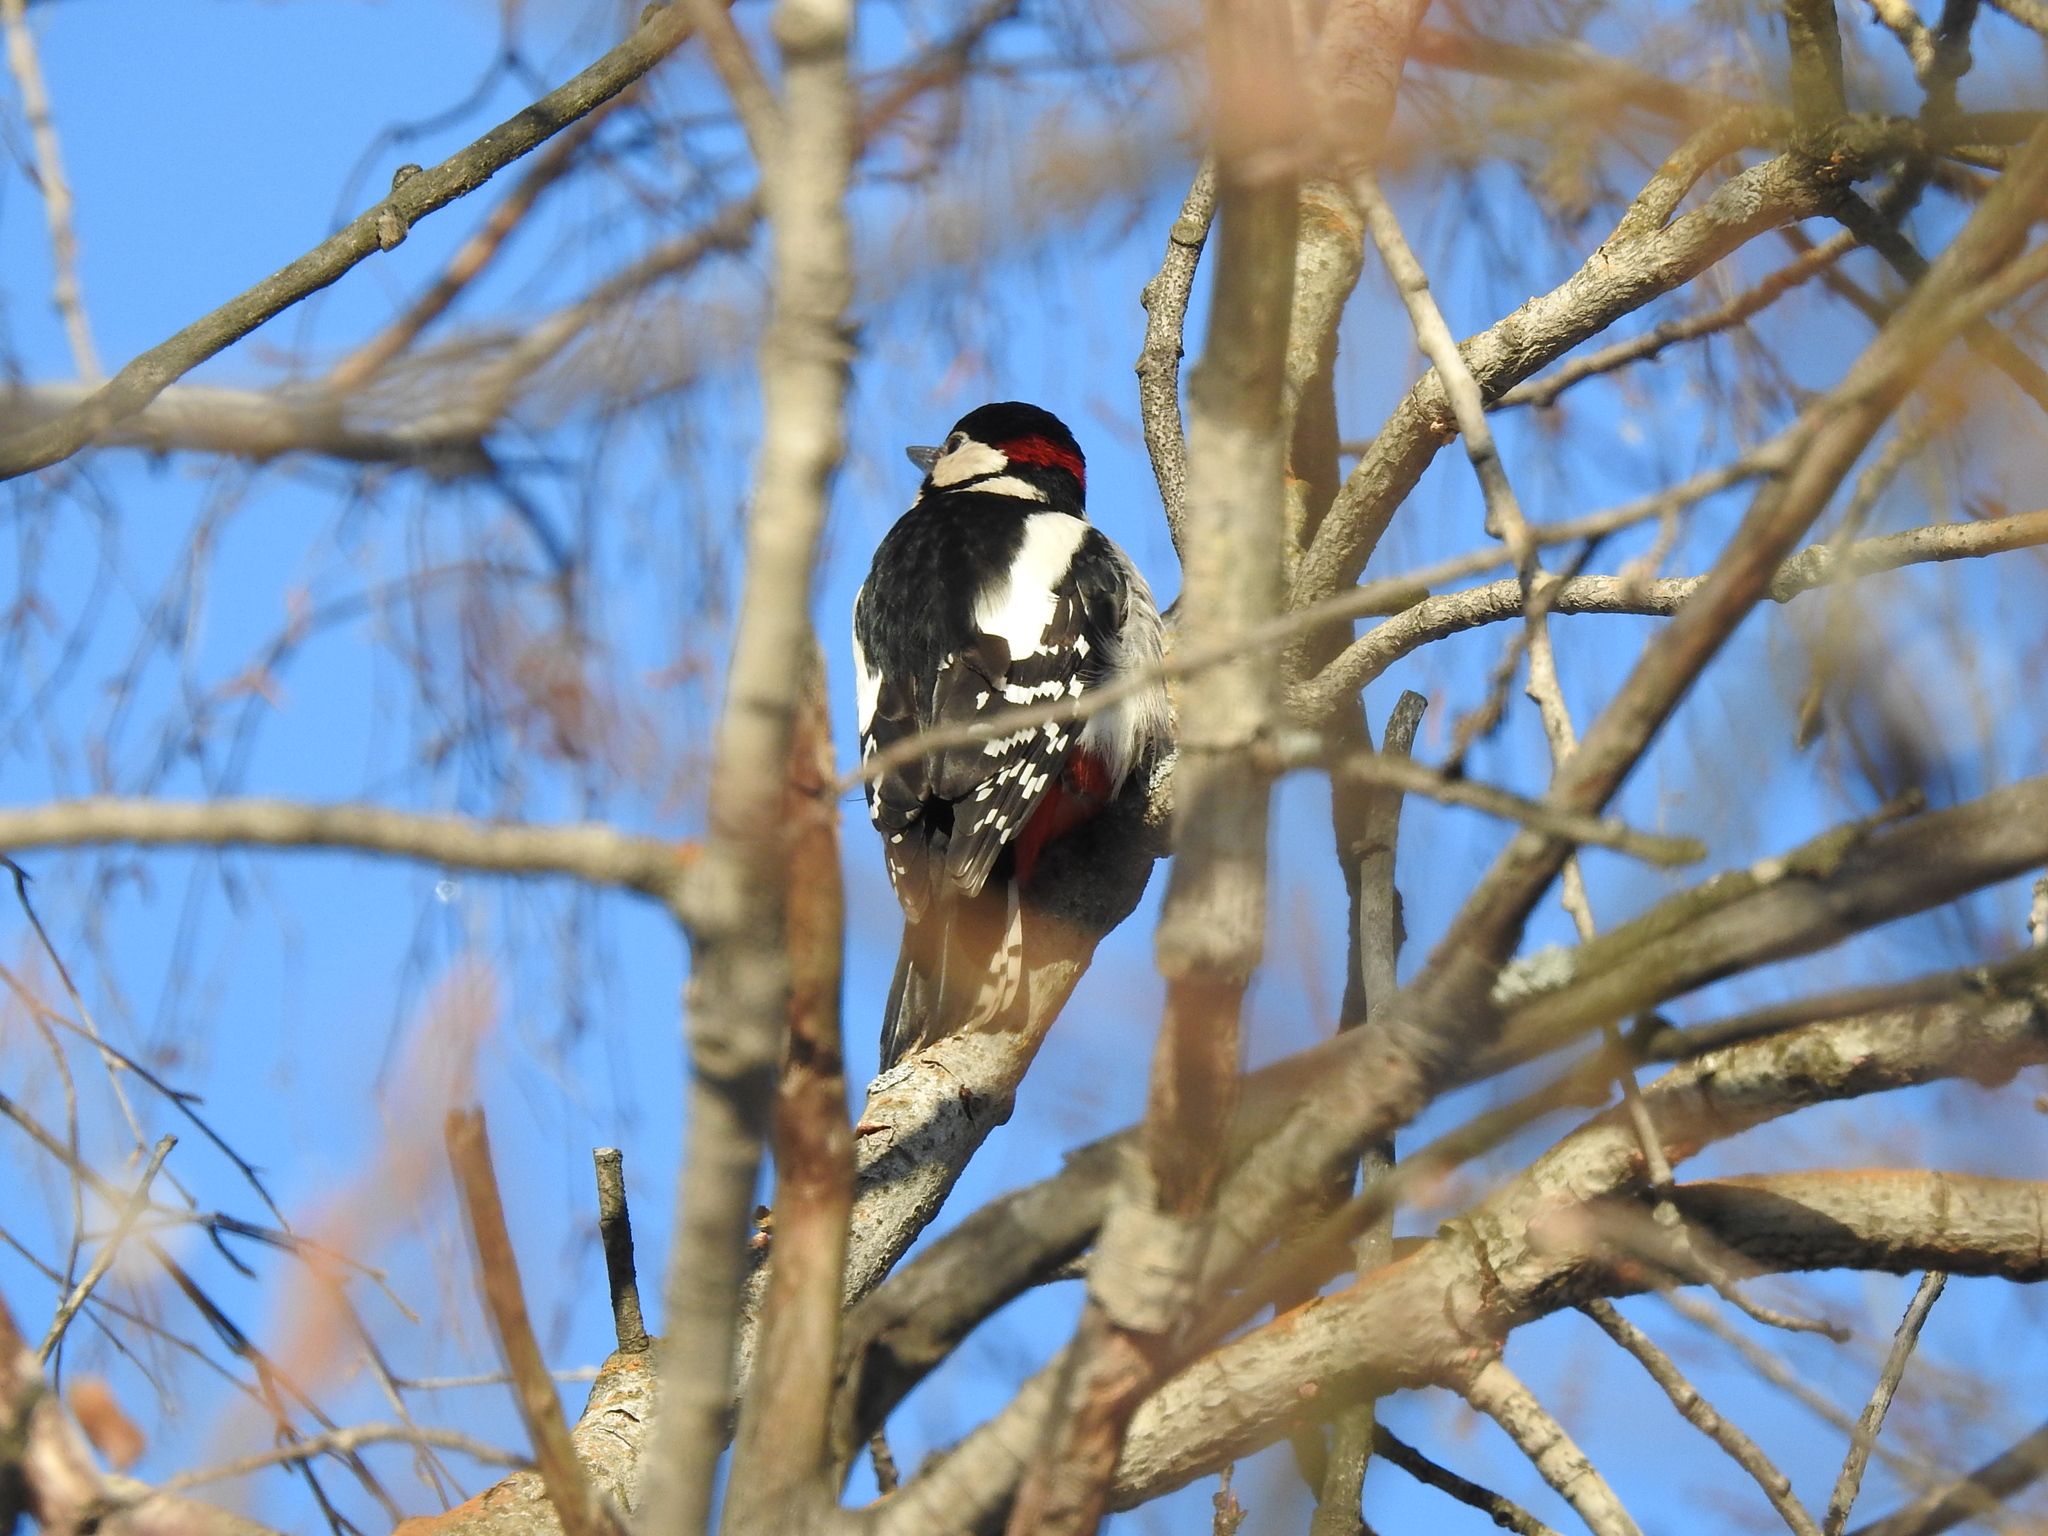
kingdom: Animalia
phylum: Chordata
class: Aves
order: Piciformes
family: Picidae
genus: Dendrocopos
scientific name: Dendrocopos major
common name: Great spotted woodpecker
